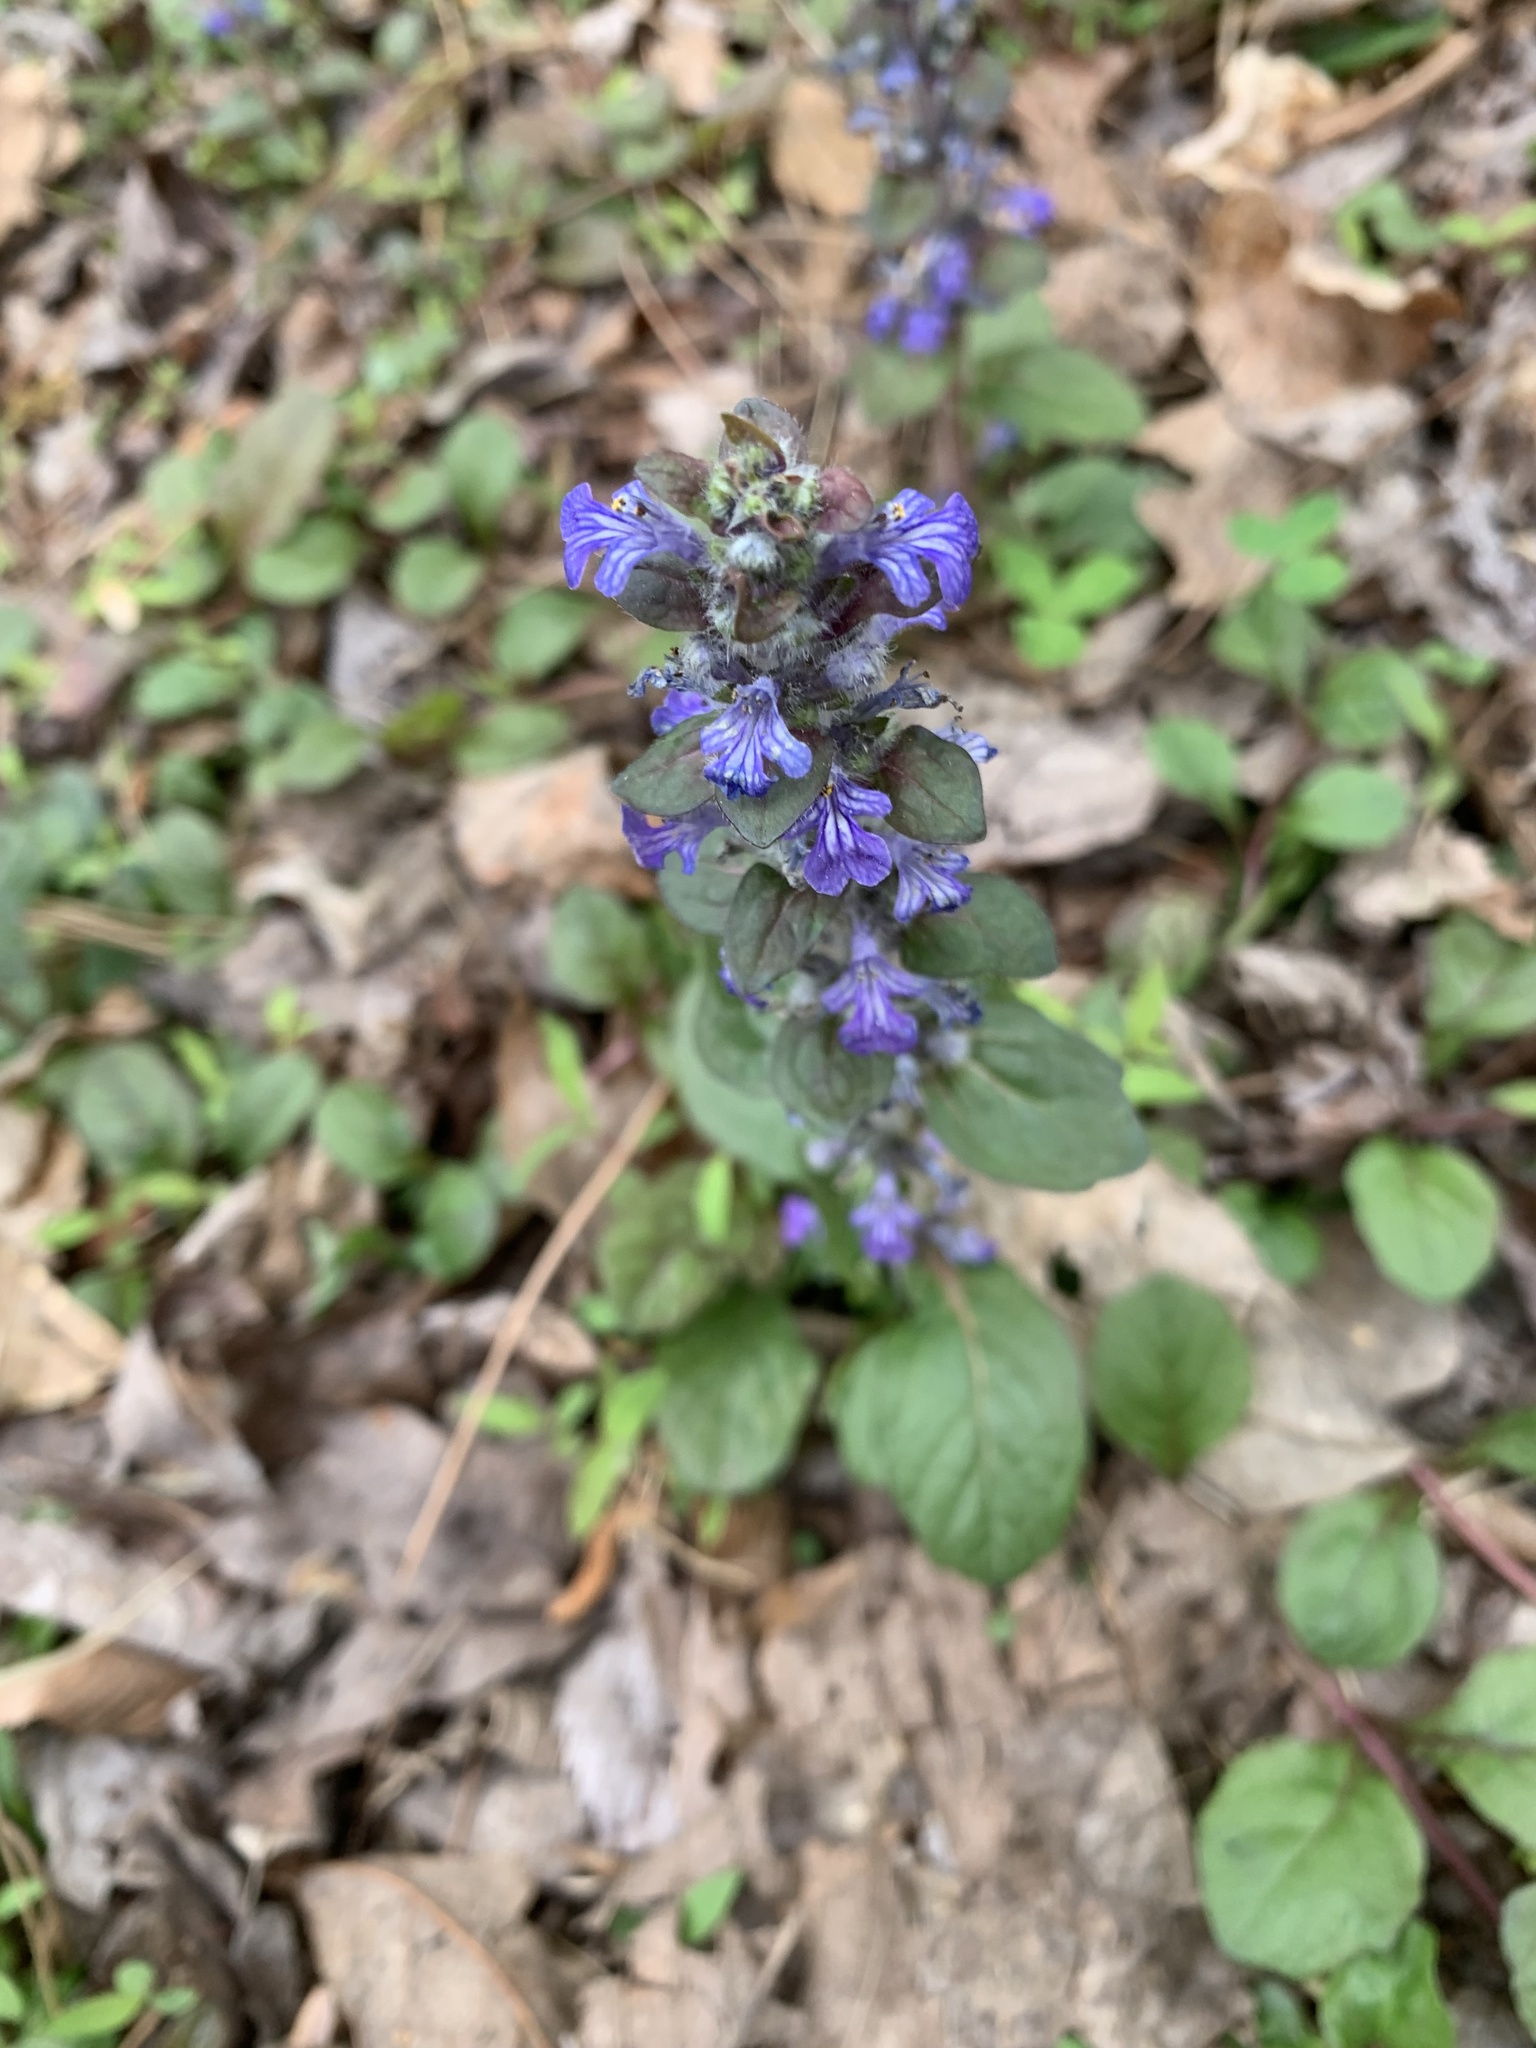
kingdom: Plantae
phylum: Tracheophyta
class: Magnoliopsida
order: Lamiales
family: Lamiaceae
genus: Ajuga
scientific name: Ajuga reptans
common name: Bugle
